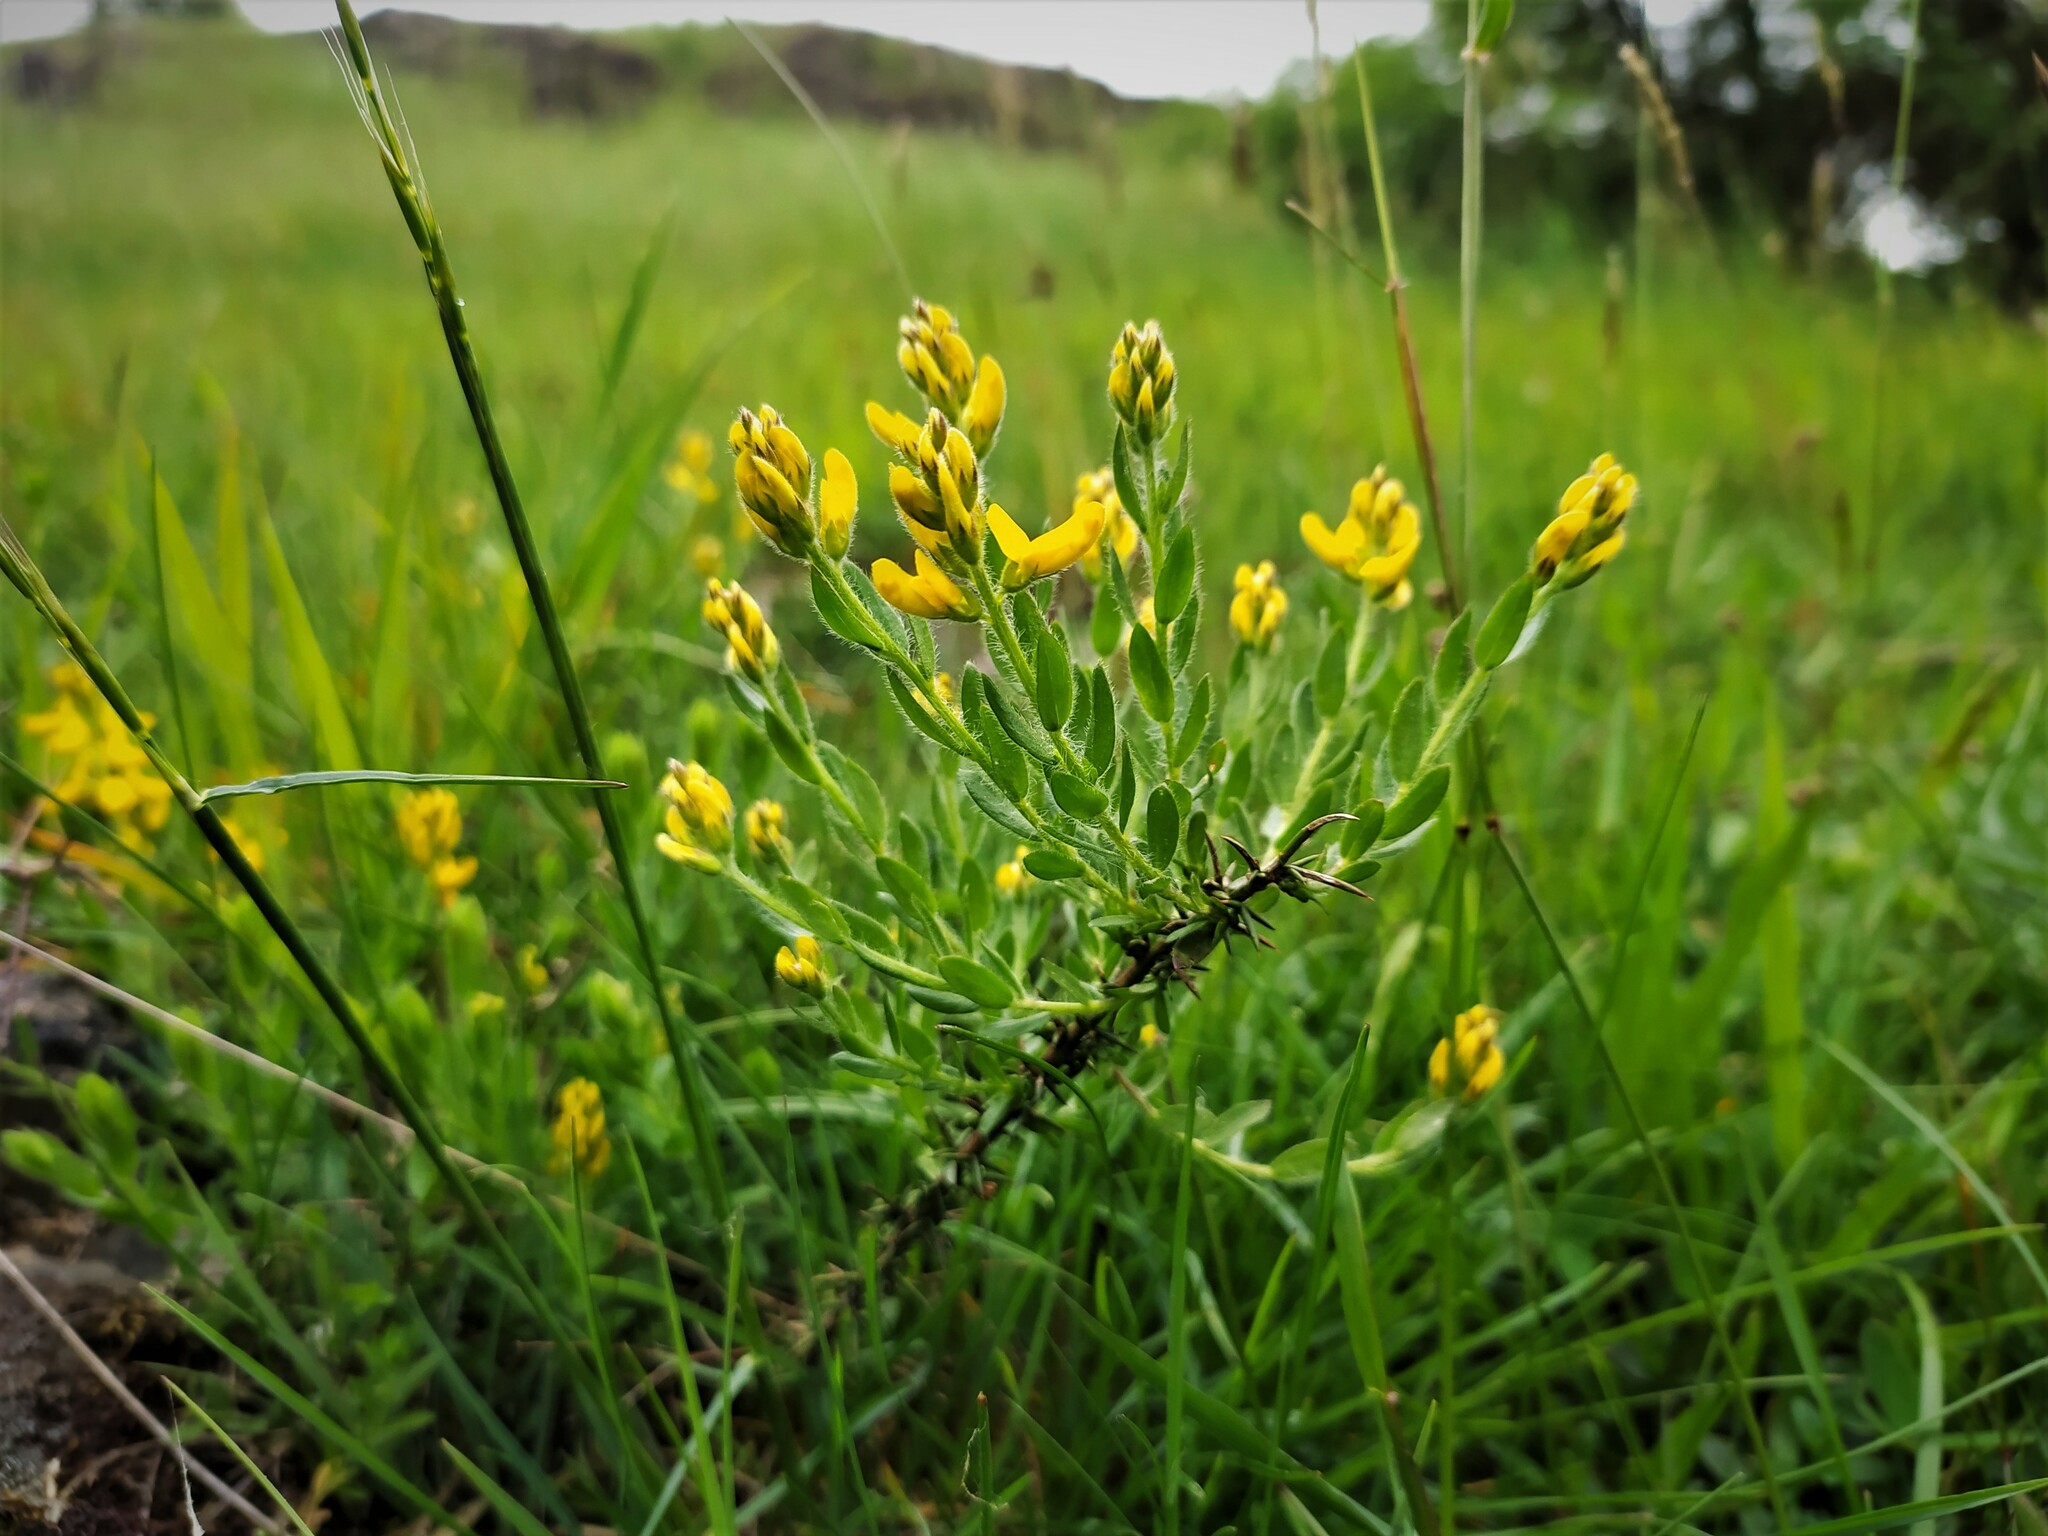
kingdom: Plantae
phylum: Tracheophyta
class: Magnoliopsida
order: Fabales
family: Fabaceae
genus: Genista
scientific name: Genista germanica
